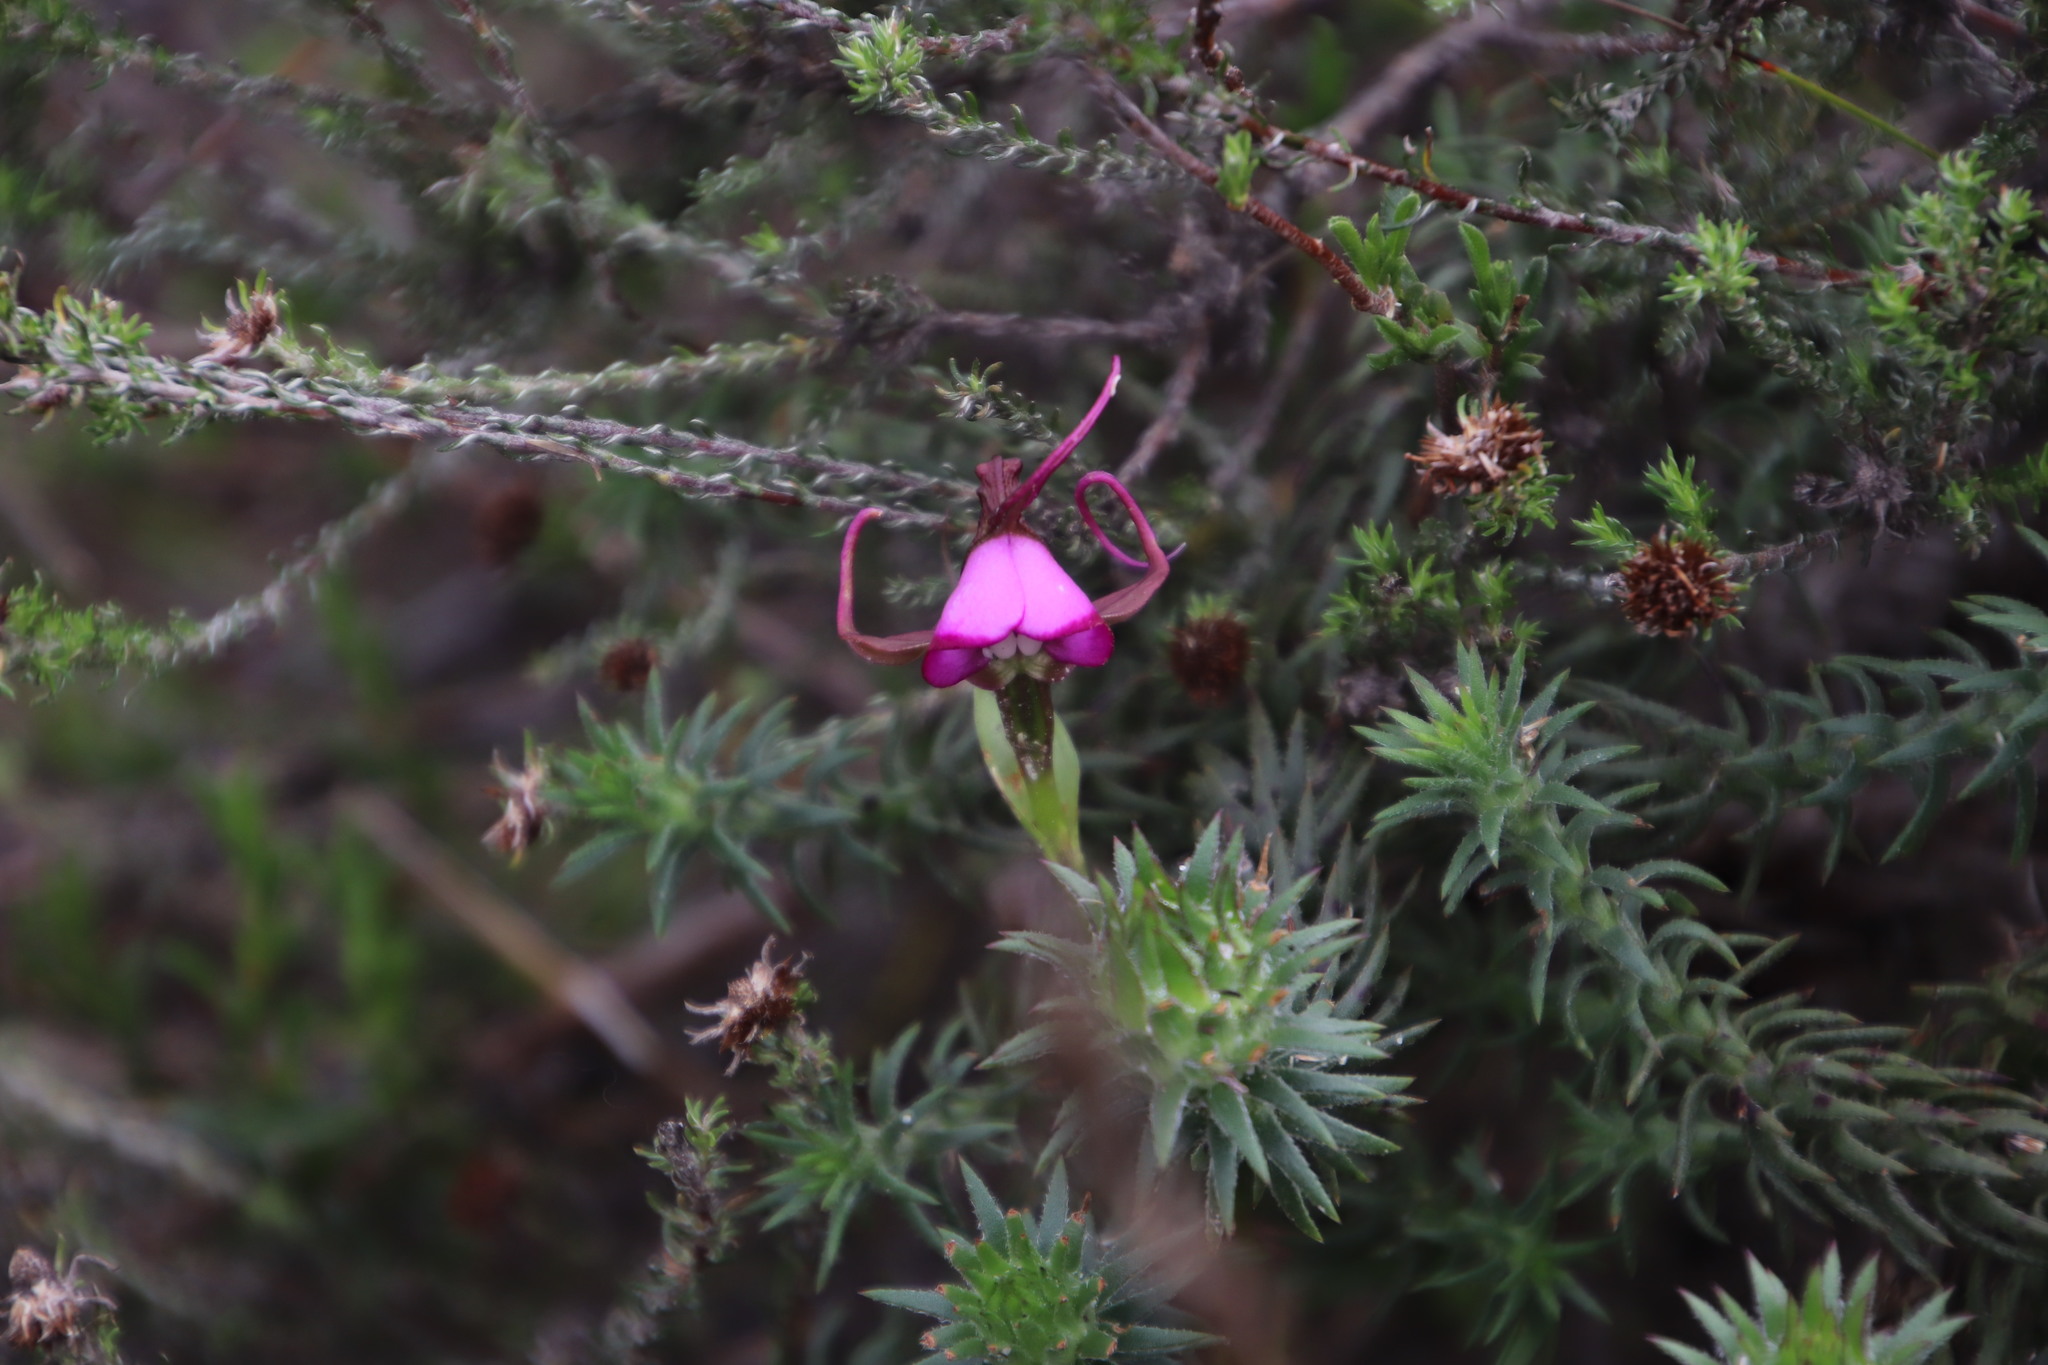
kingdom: Plantae
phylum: Tracheophyta
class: Liliopsida
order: Asparagales
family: Orchidaceae
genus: Disperis
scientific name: Disperis capensis
